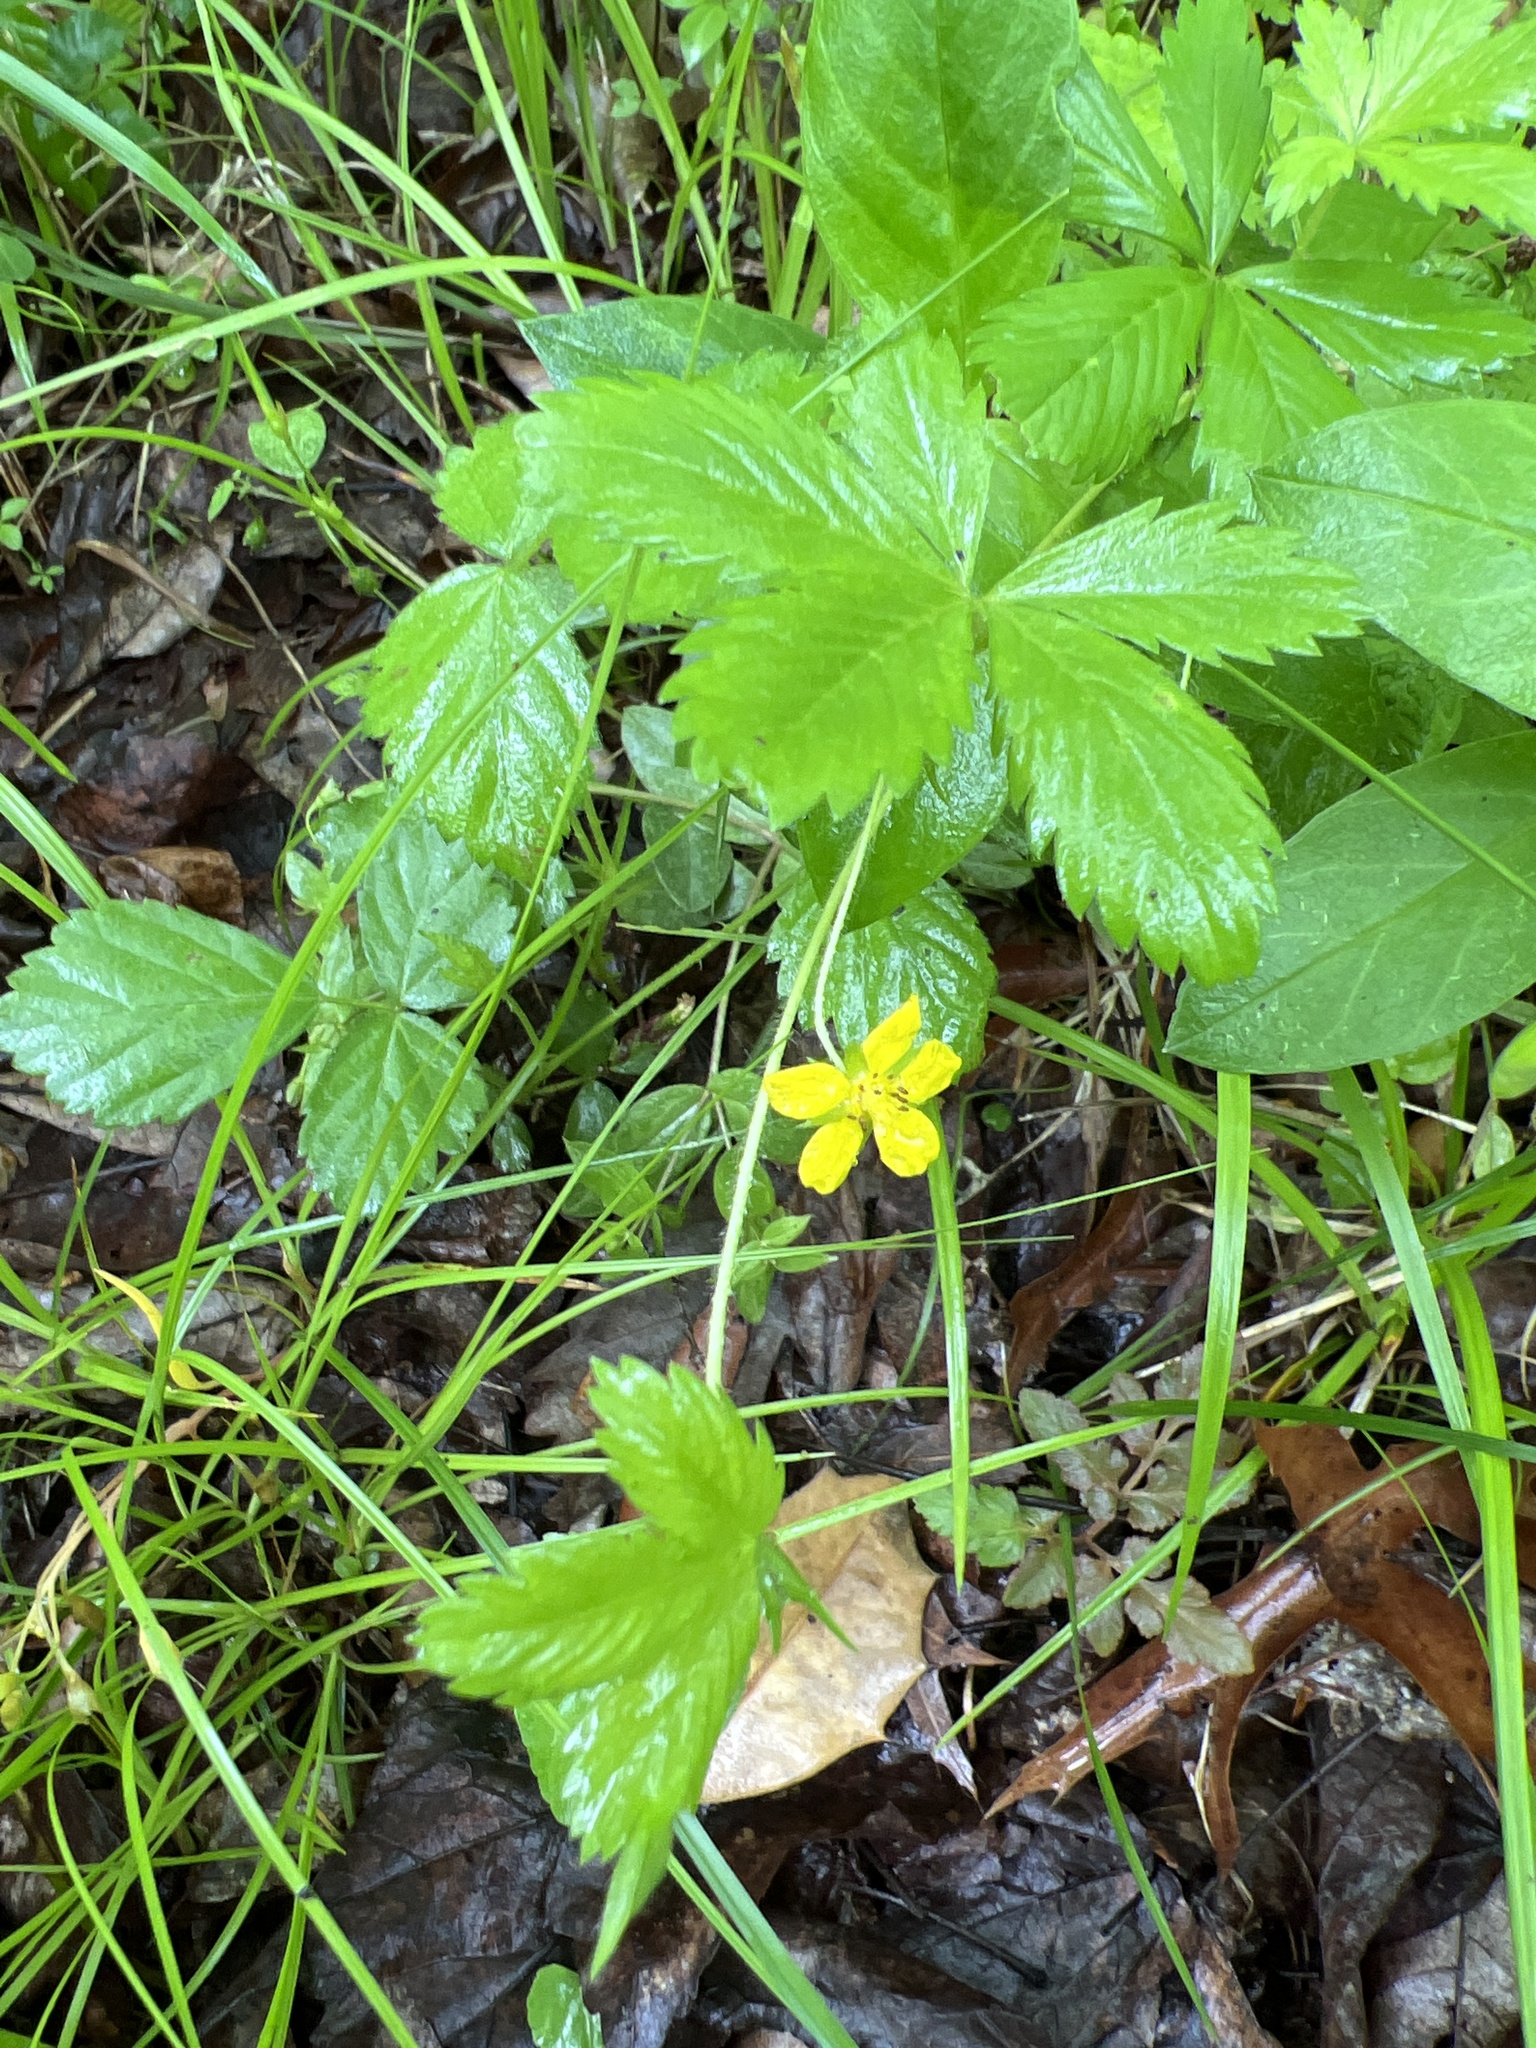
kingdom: Plantae
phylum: Tracheophyta
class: Magnoliopsida
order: Rosales
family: Rosaceae
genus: Potentilla
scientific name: Potentilla simplex
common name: Old field cinquefoil
